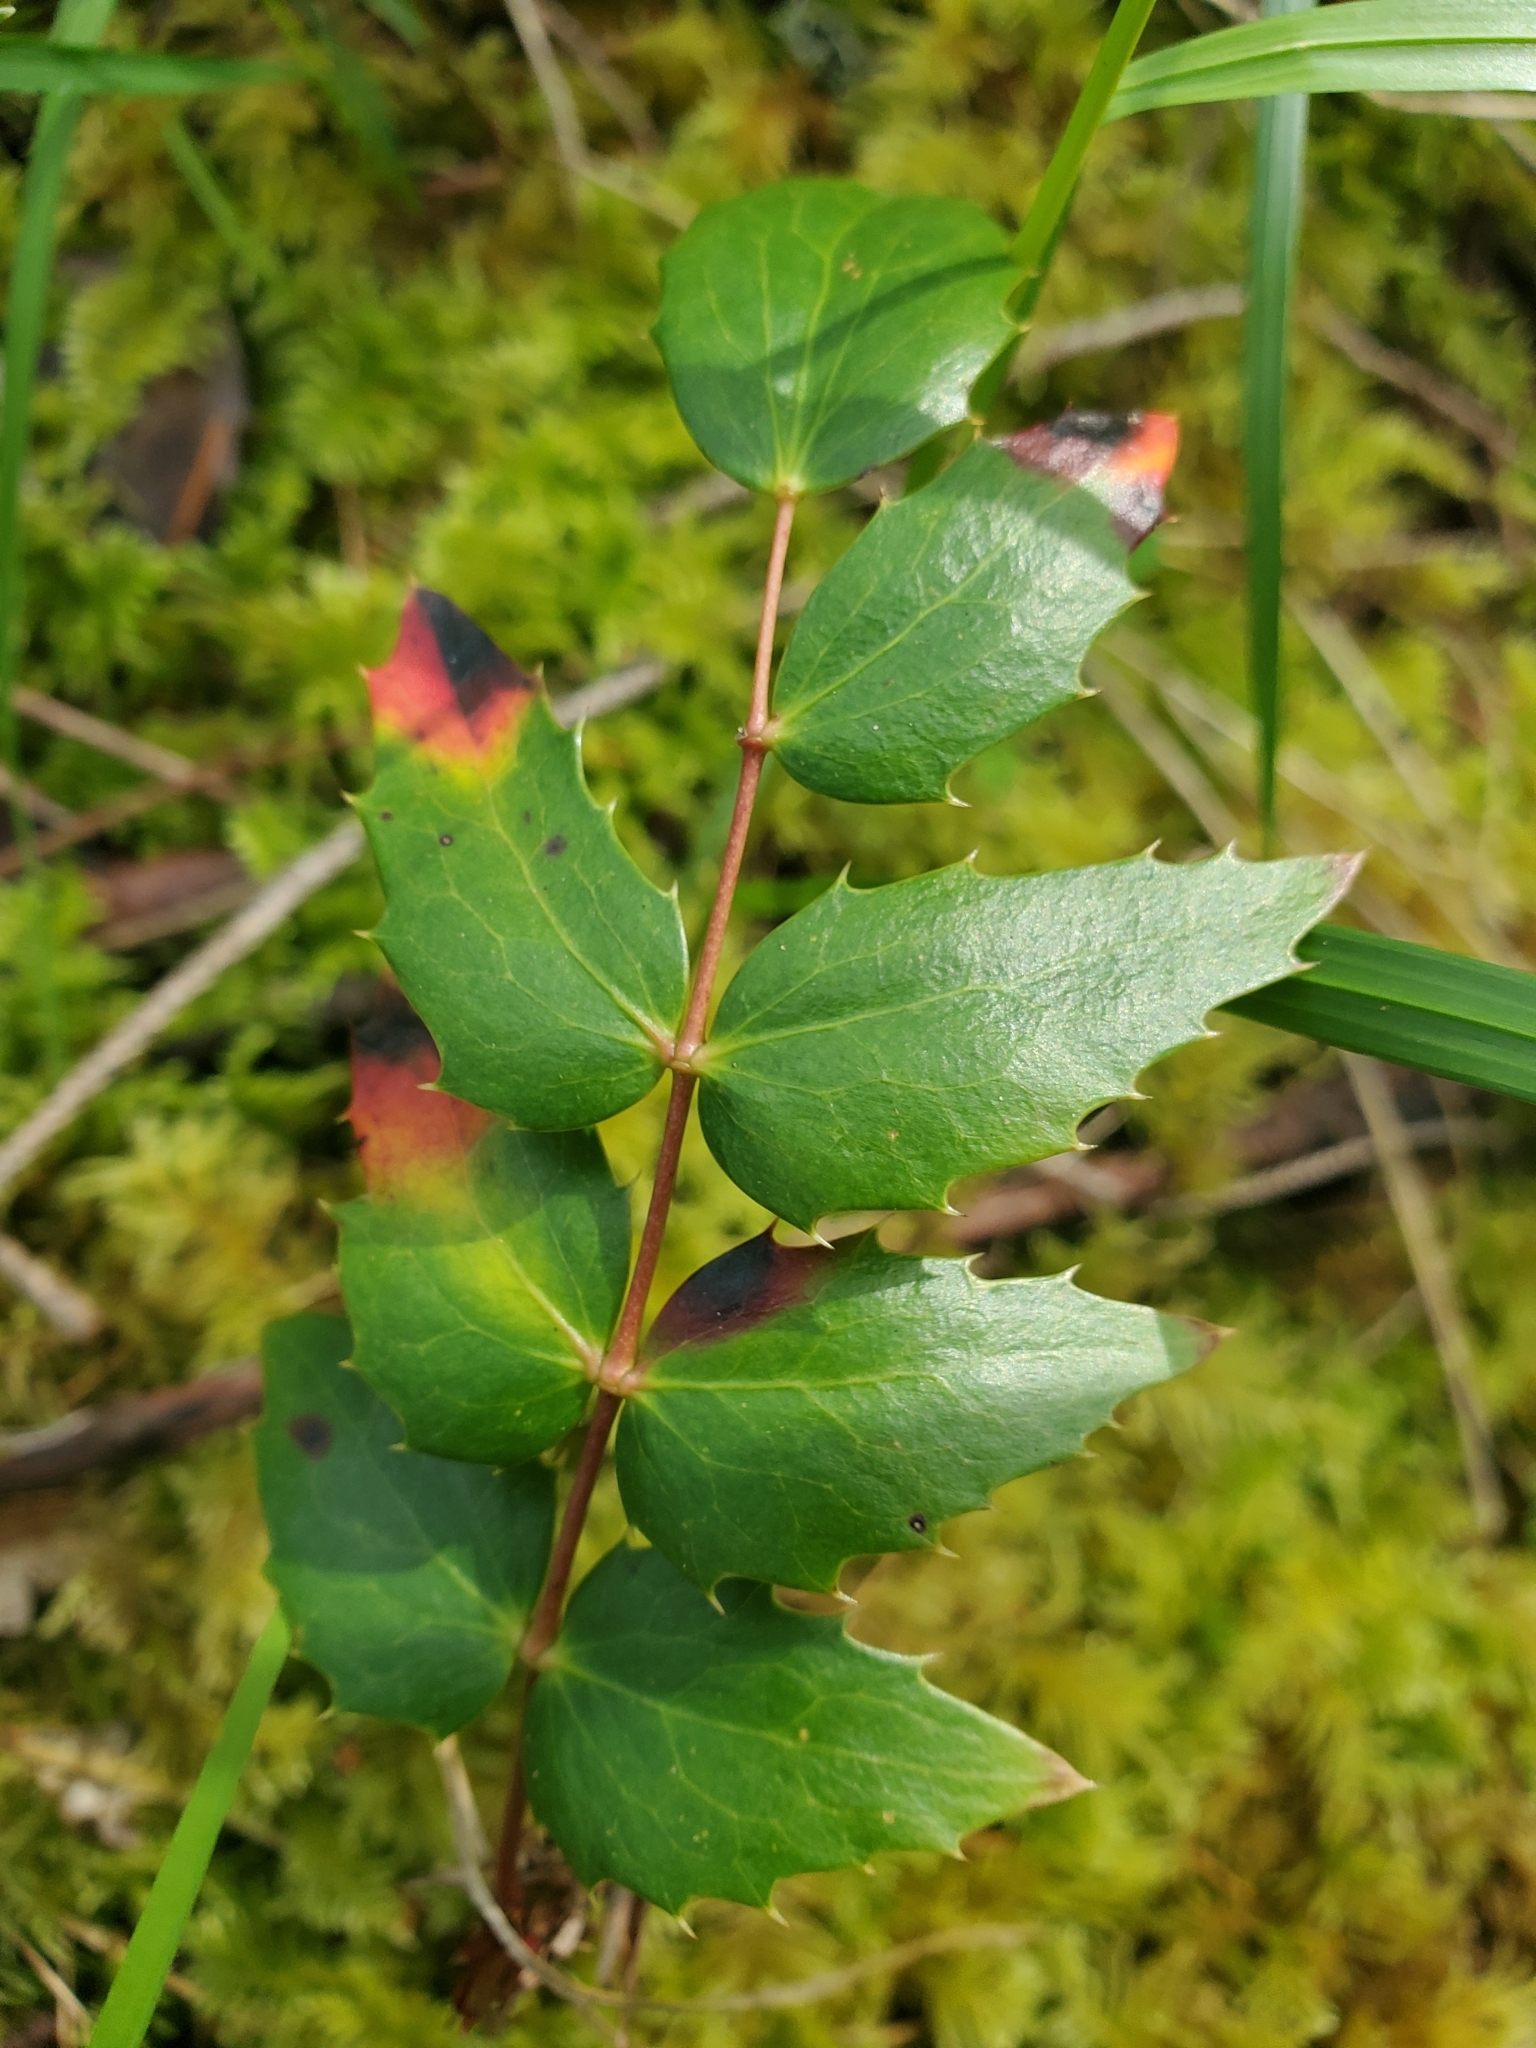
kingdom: Plantae
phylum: Tracheophyta
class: Magnoliopsida
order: Ranunculales
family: Berberidaceae
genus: Mahonia
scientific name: Mahonia nervosa
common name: Cascade oregon-grape
